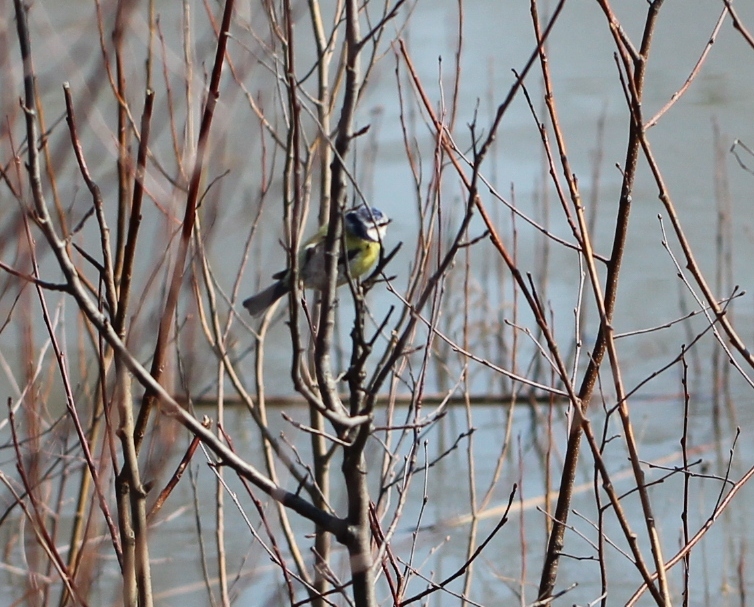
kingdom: Animalia
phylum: Chordata
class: Aves
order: Passeriformes
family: Paridae
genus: Cyanistes
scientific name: Cyanistes caeruleus
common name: Eurasian blue tit
